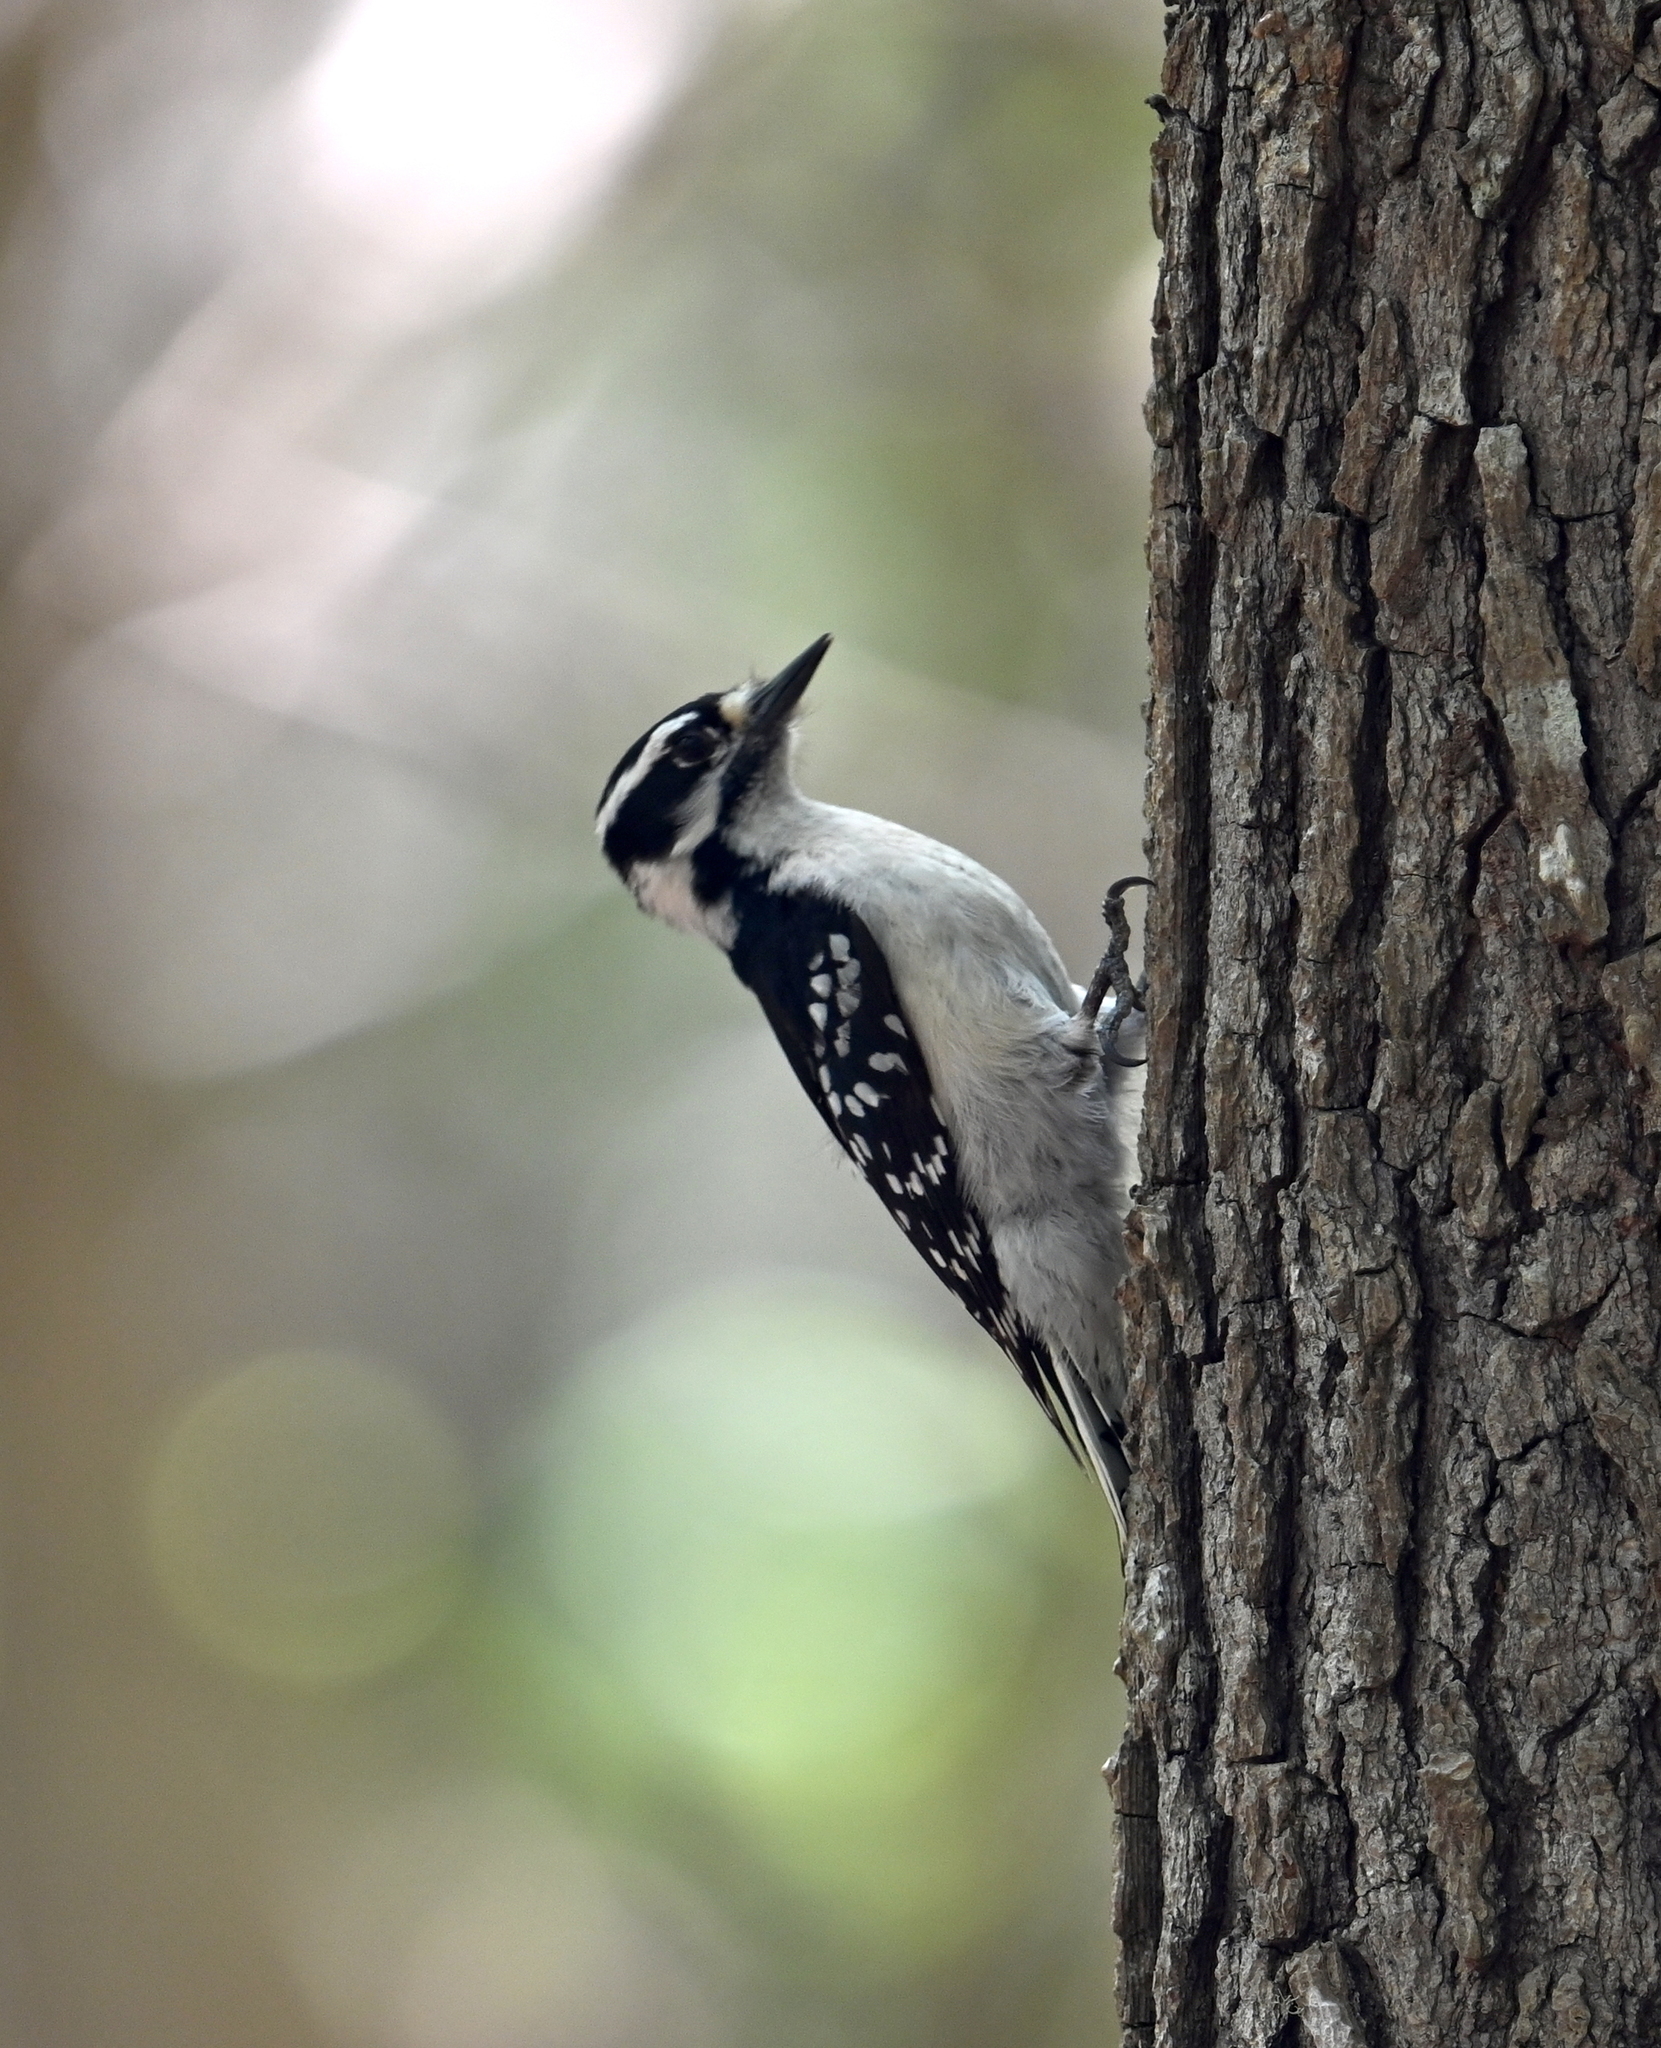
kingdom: Animalia
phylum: Chordata
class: Aves
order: Piciformes
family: Picidae
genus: Dryobates
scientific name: Dryobates pubescens
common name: Downy woodpecker
